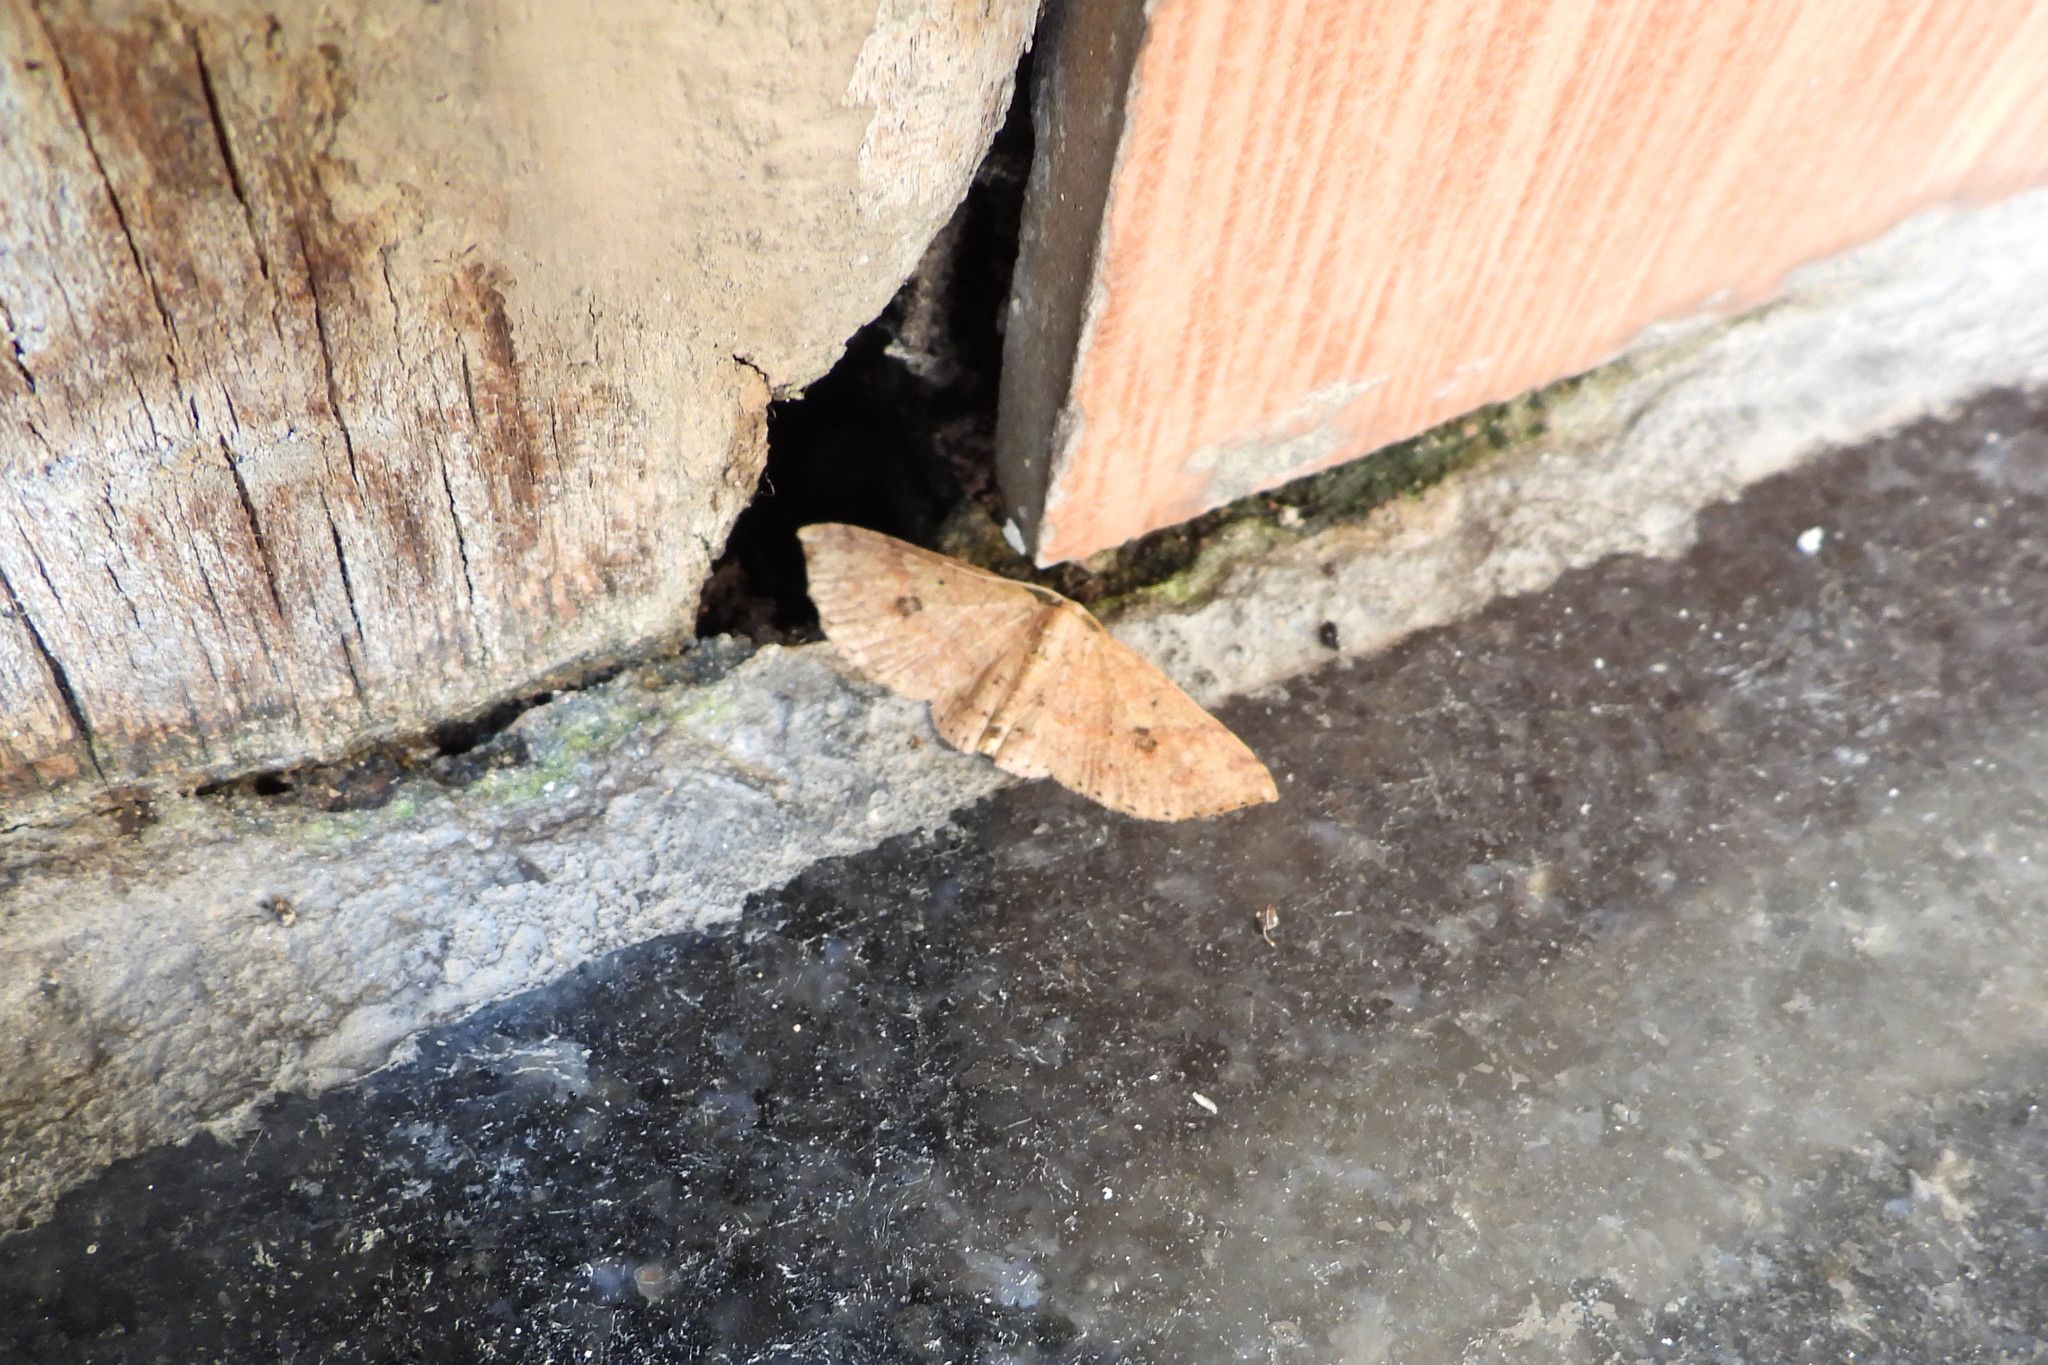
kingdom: Animalia
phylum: Arthropoda
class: Insecta
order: Lepidoptera
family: Geometridae
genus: Anydrelia
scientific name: Anydrelia distorta
